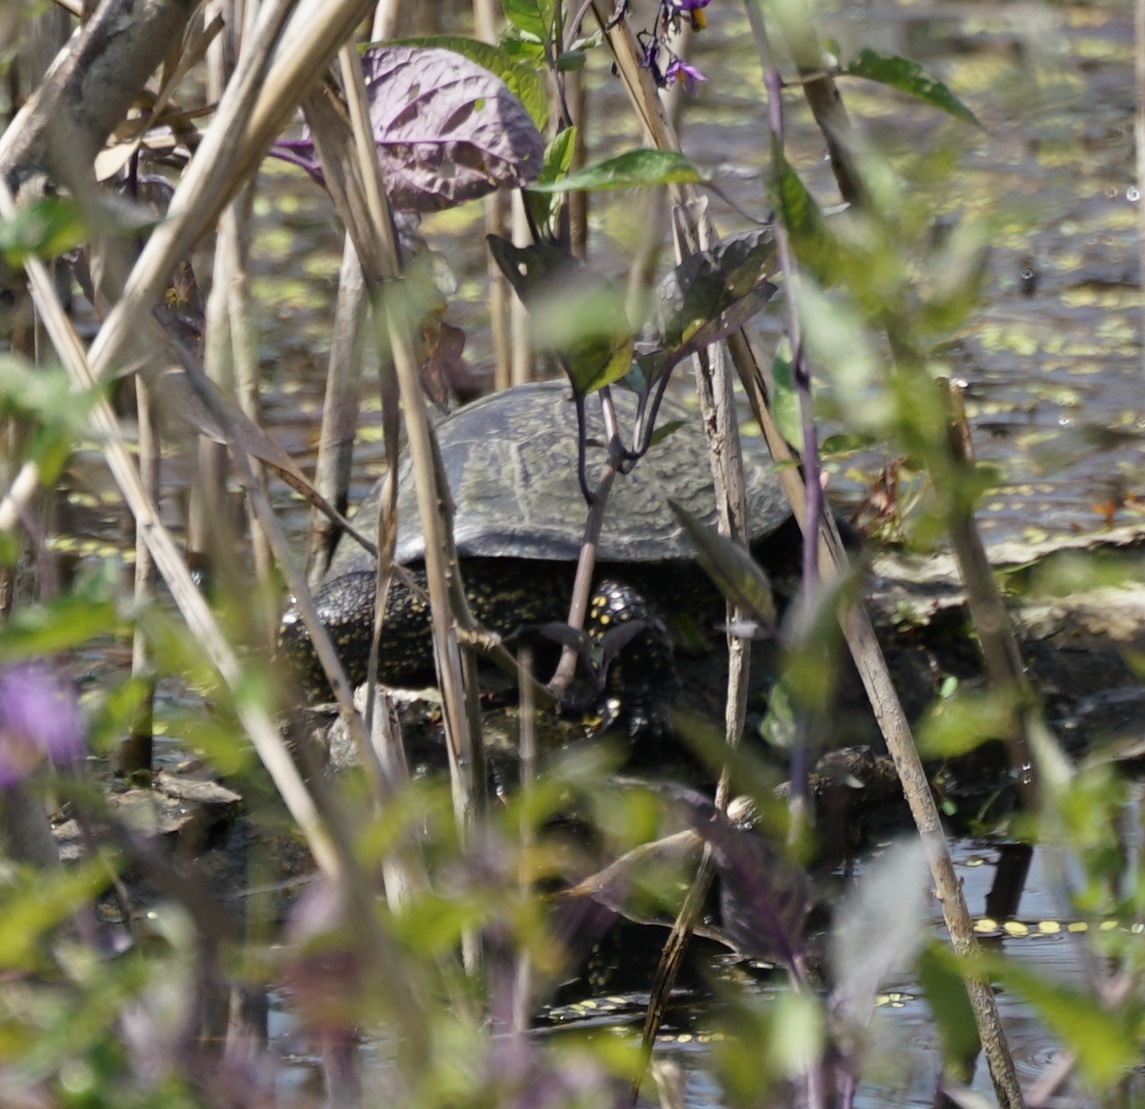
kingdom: Animalia
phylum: Chordata
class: Testudines
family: Emydidae
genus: Emys
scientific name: Emys orbicularis
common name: European pond turtle
